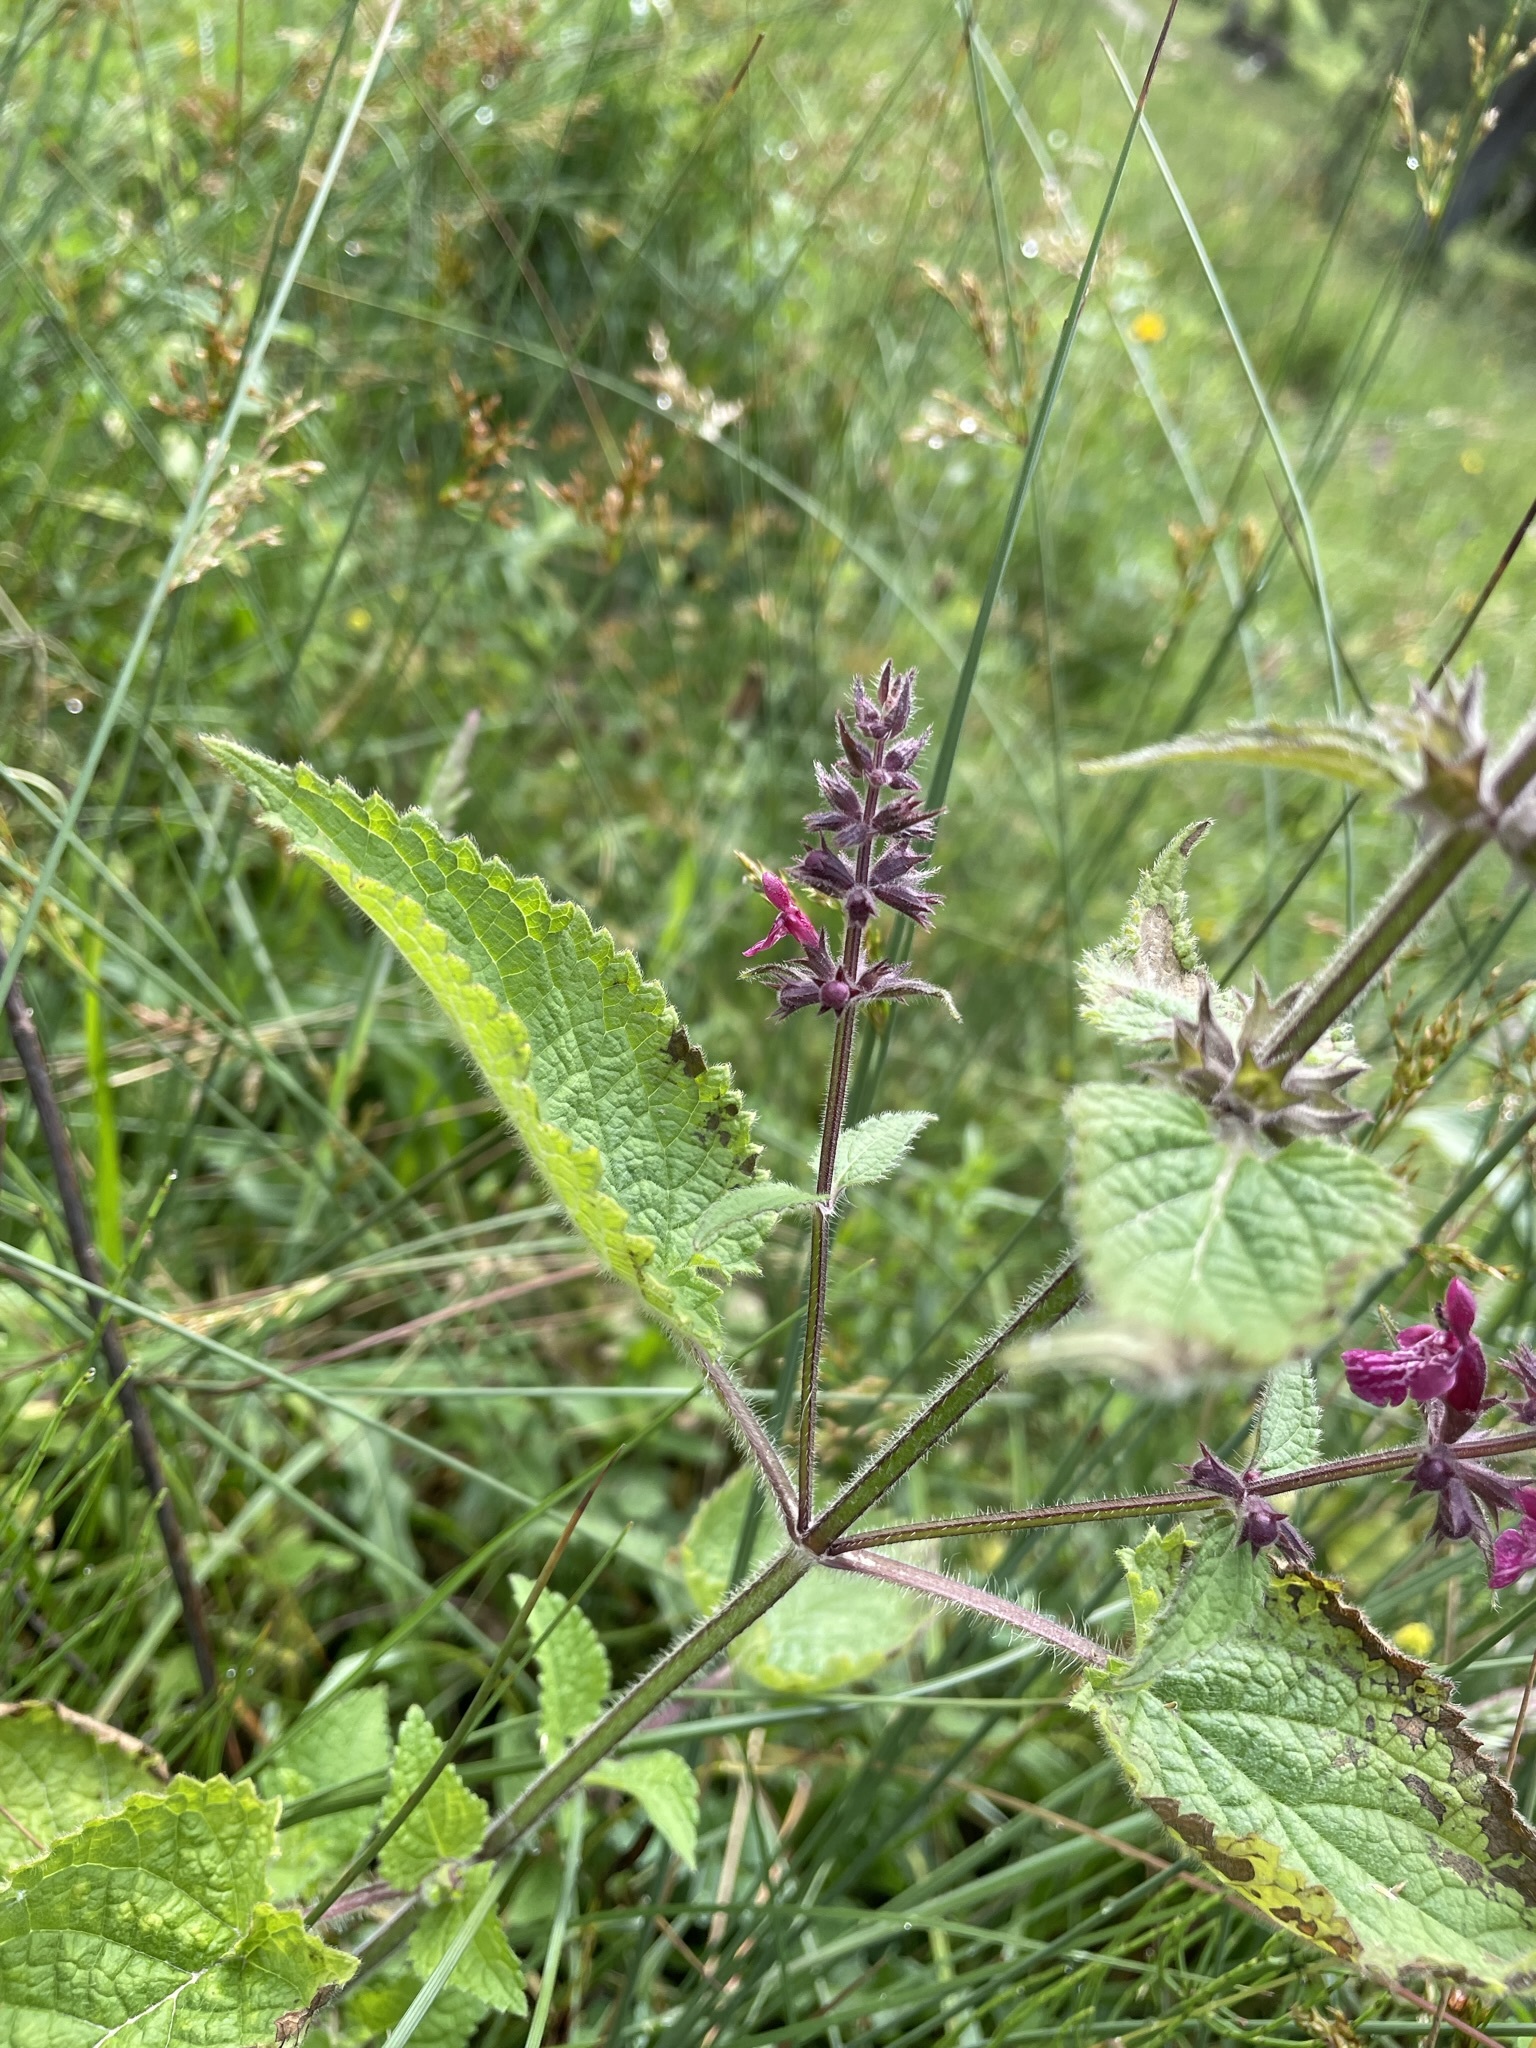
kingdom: Plantae
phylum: Tracheophyta
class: Magnoliopsida
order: Lamiales
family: Lamiaceae
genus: Stachys
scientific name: Stachys sylvatica
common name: Hedge woundwort
